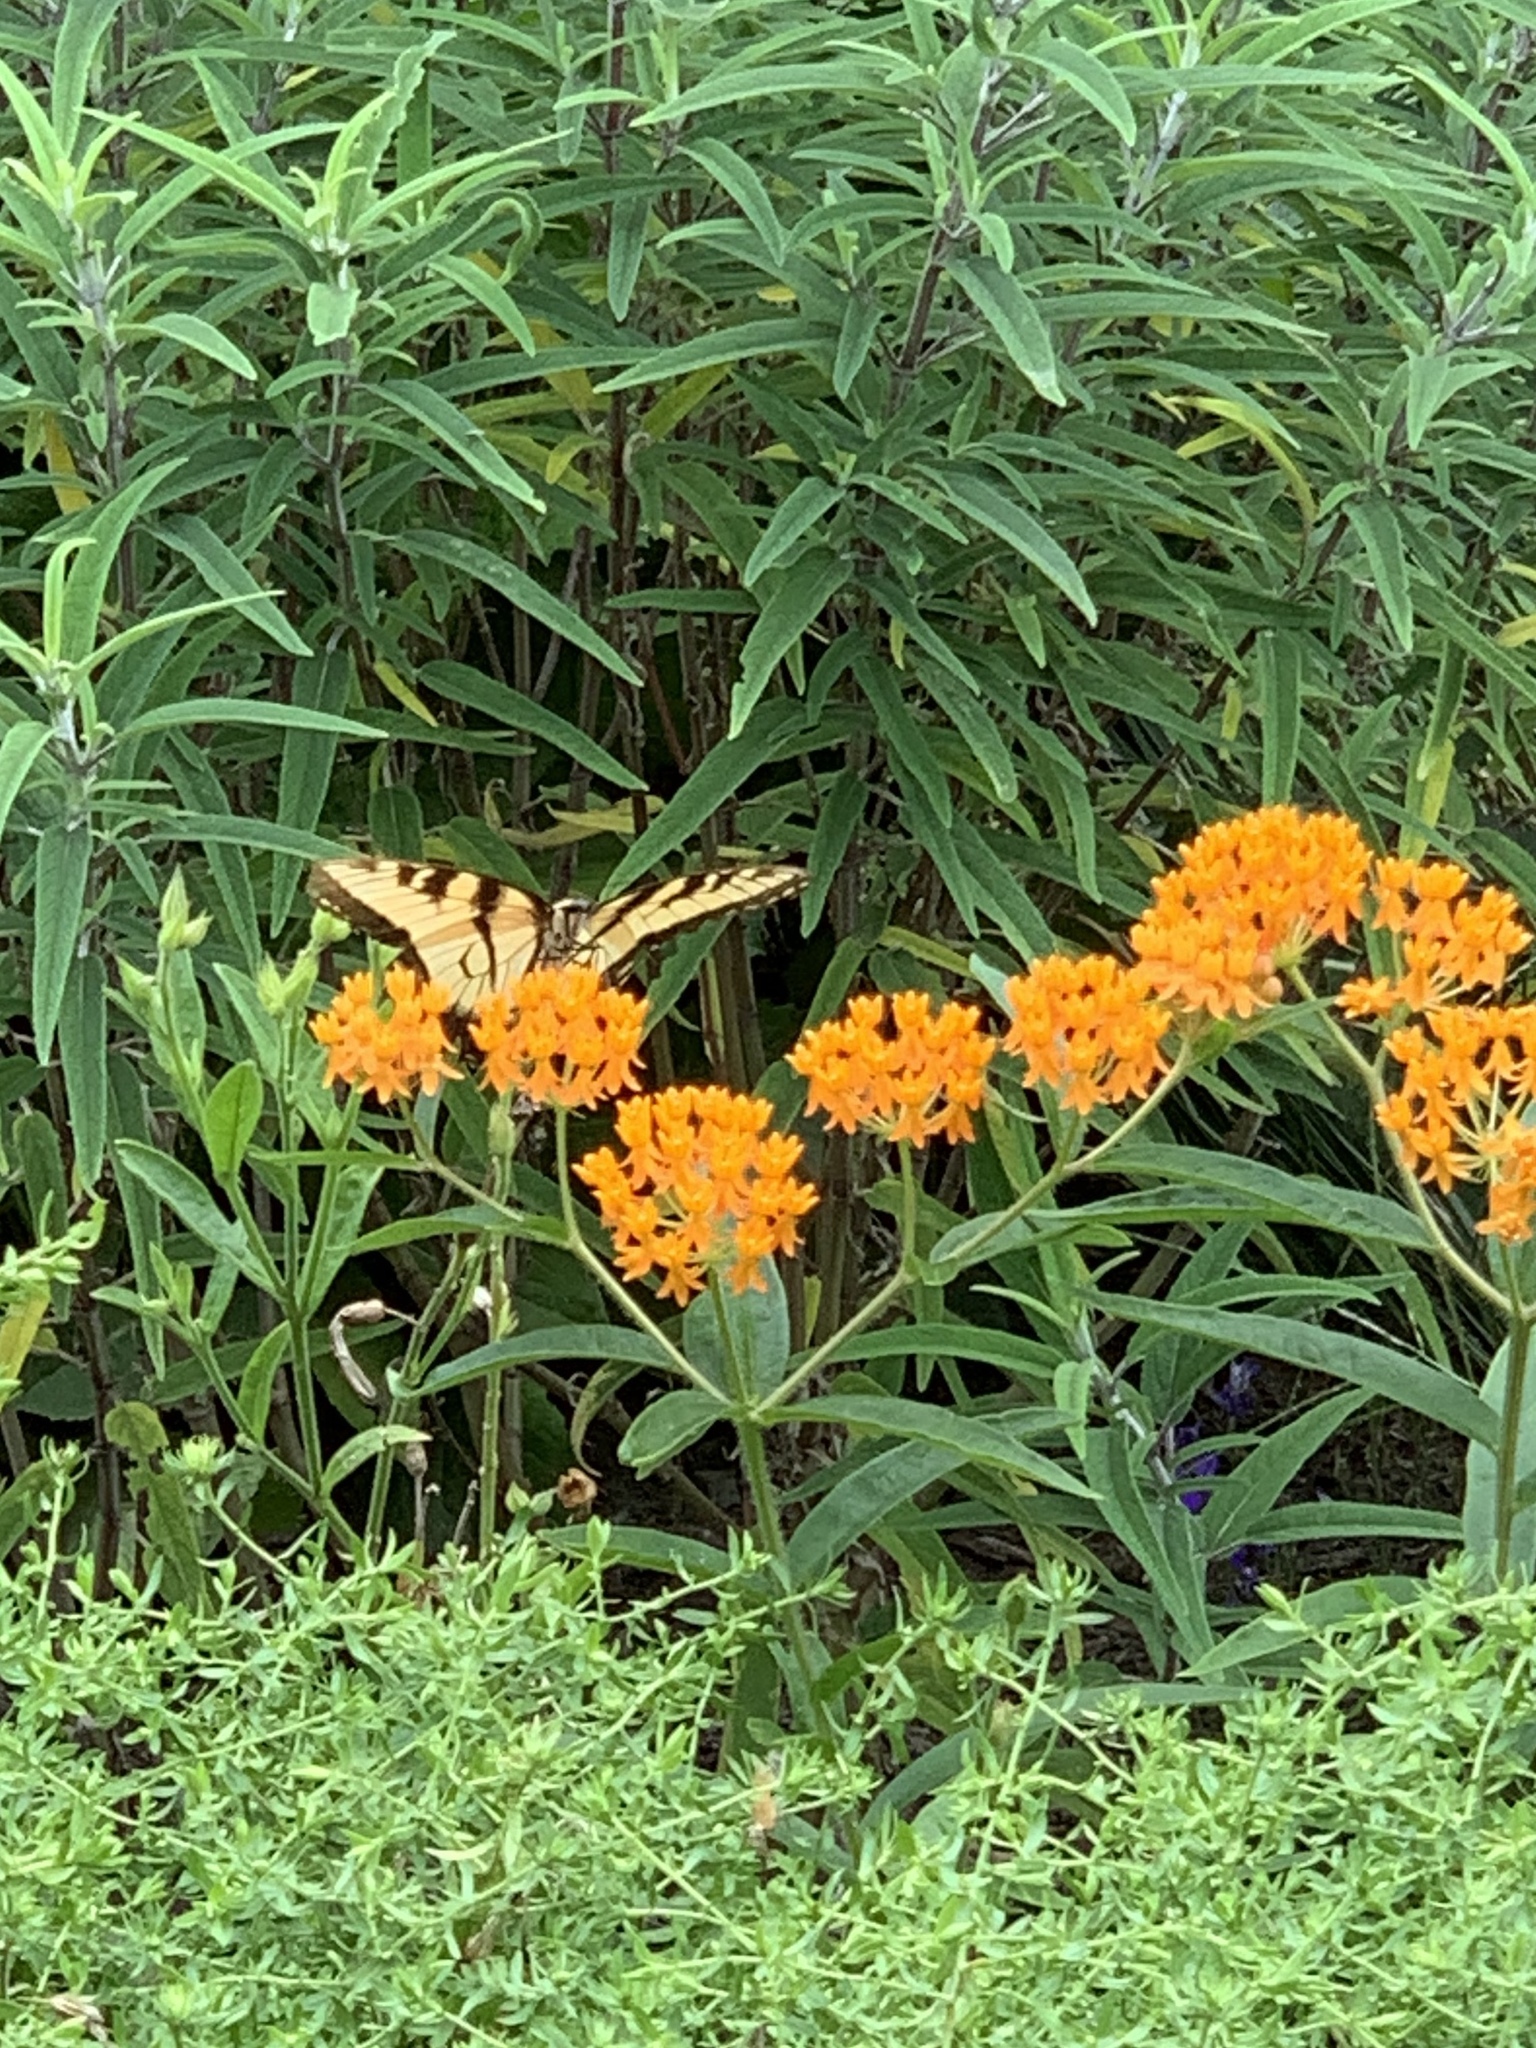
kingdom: Animalia
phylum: Arthropoda
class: Insecta
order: Lepidoptera
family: Papilionidae
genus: Papilio
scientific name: Papilio glaucus
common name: Tiger swallowtail
